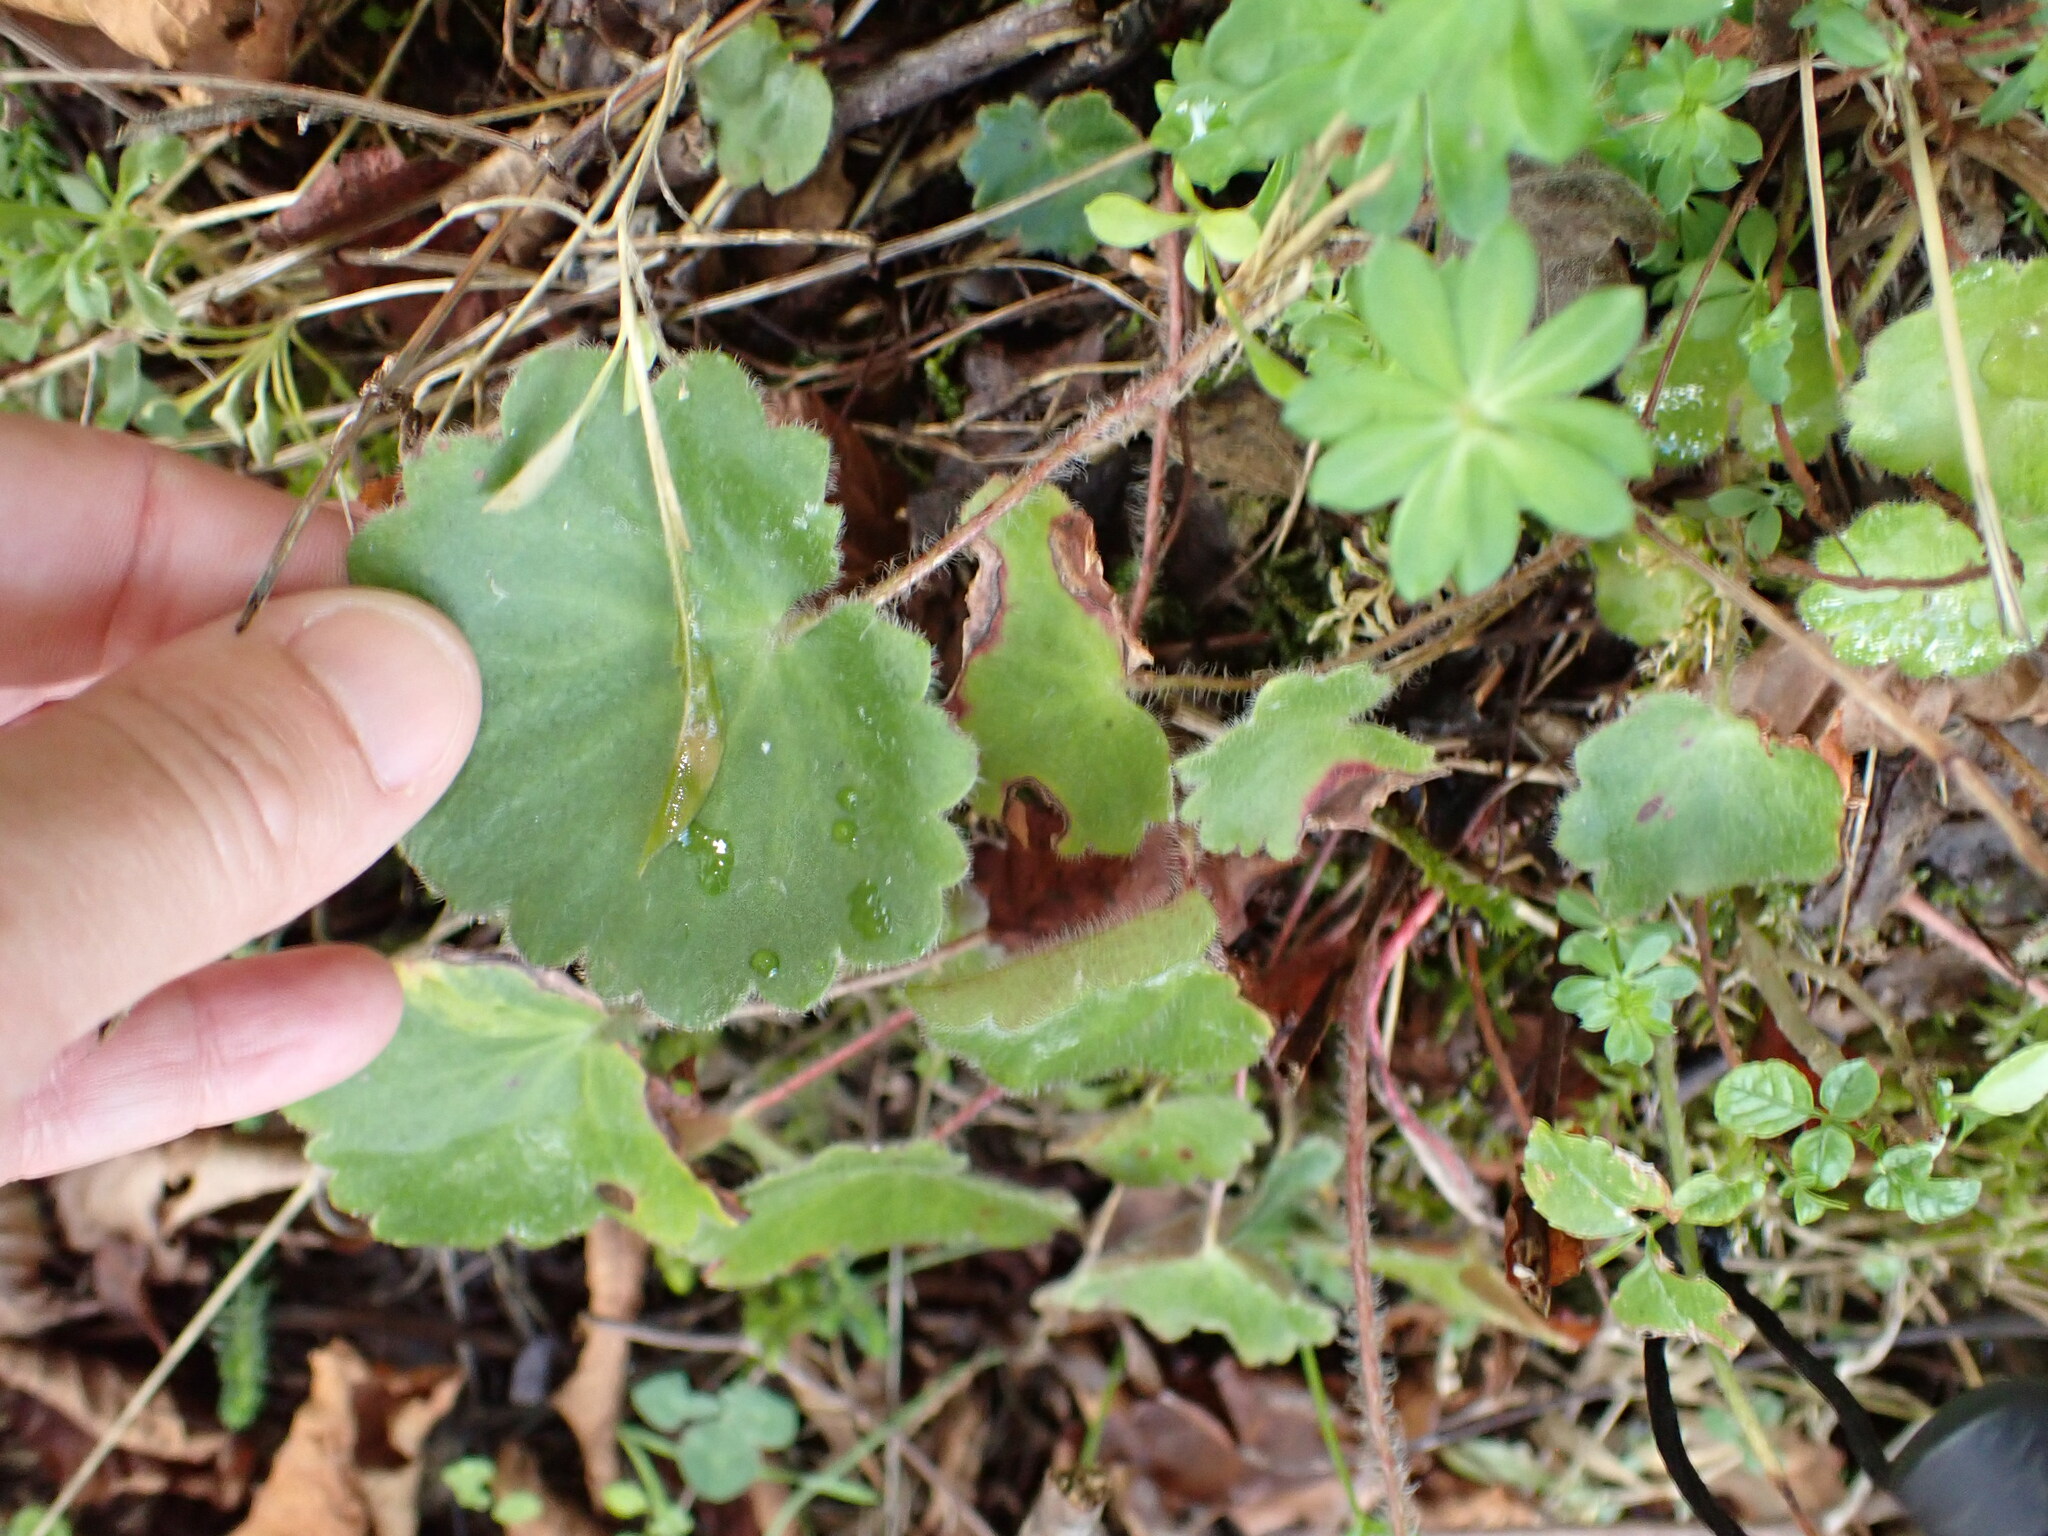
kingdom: Plantae
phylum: Tracheophyta
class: Magnoliopsida
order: Saxifragales
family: Saxifragaceae
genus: Saxifraga
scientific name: Saxifraga rotundifolia
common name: Round-leaved saxifrage
